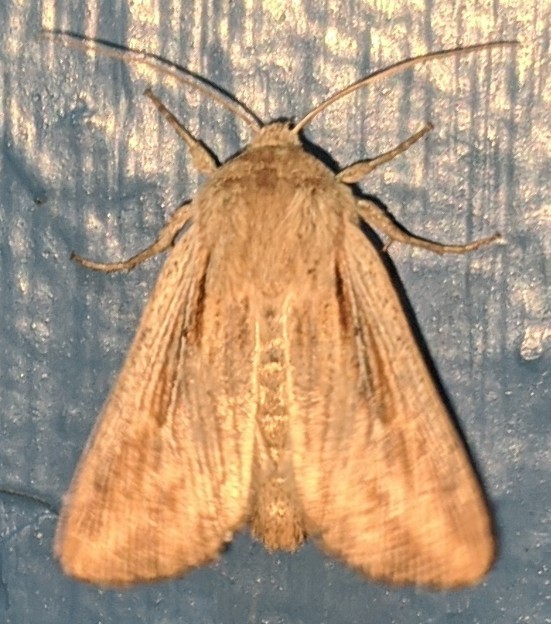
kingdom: Animalia
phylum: Arthropoda
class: Insecta
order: Lepidoptera
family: Noctuidae
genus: Mythimna
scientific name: Mythimna unipuncta
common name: White-speck
